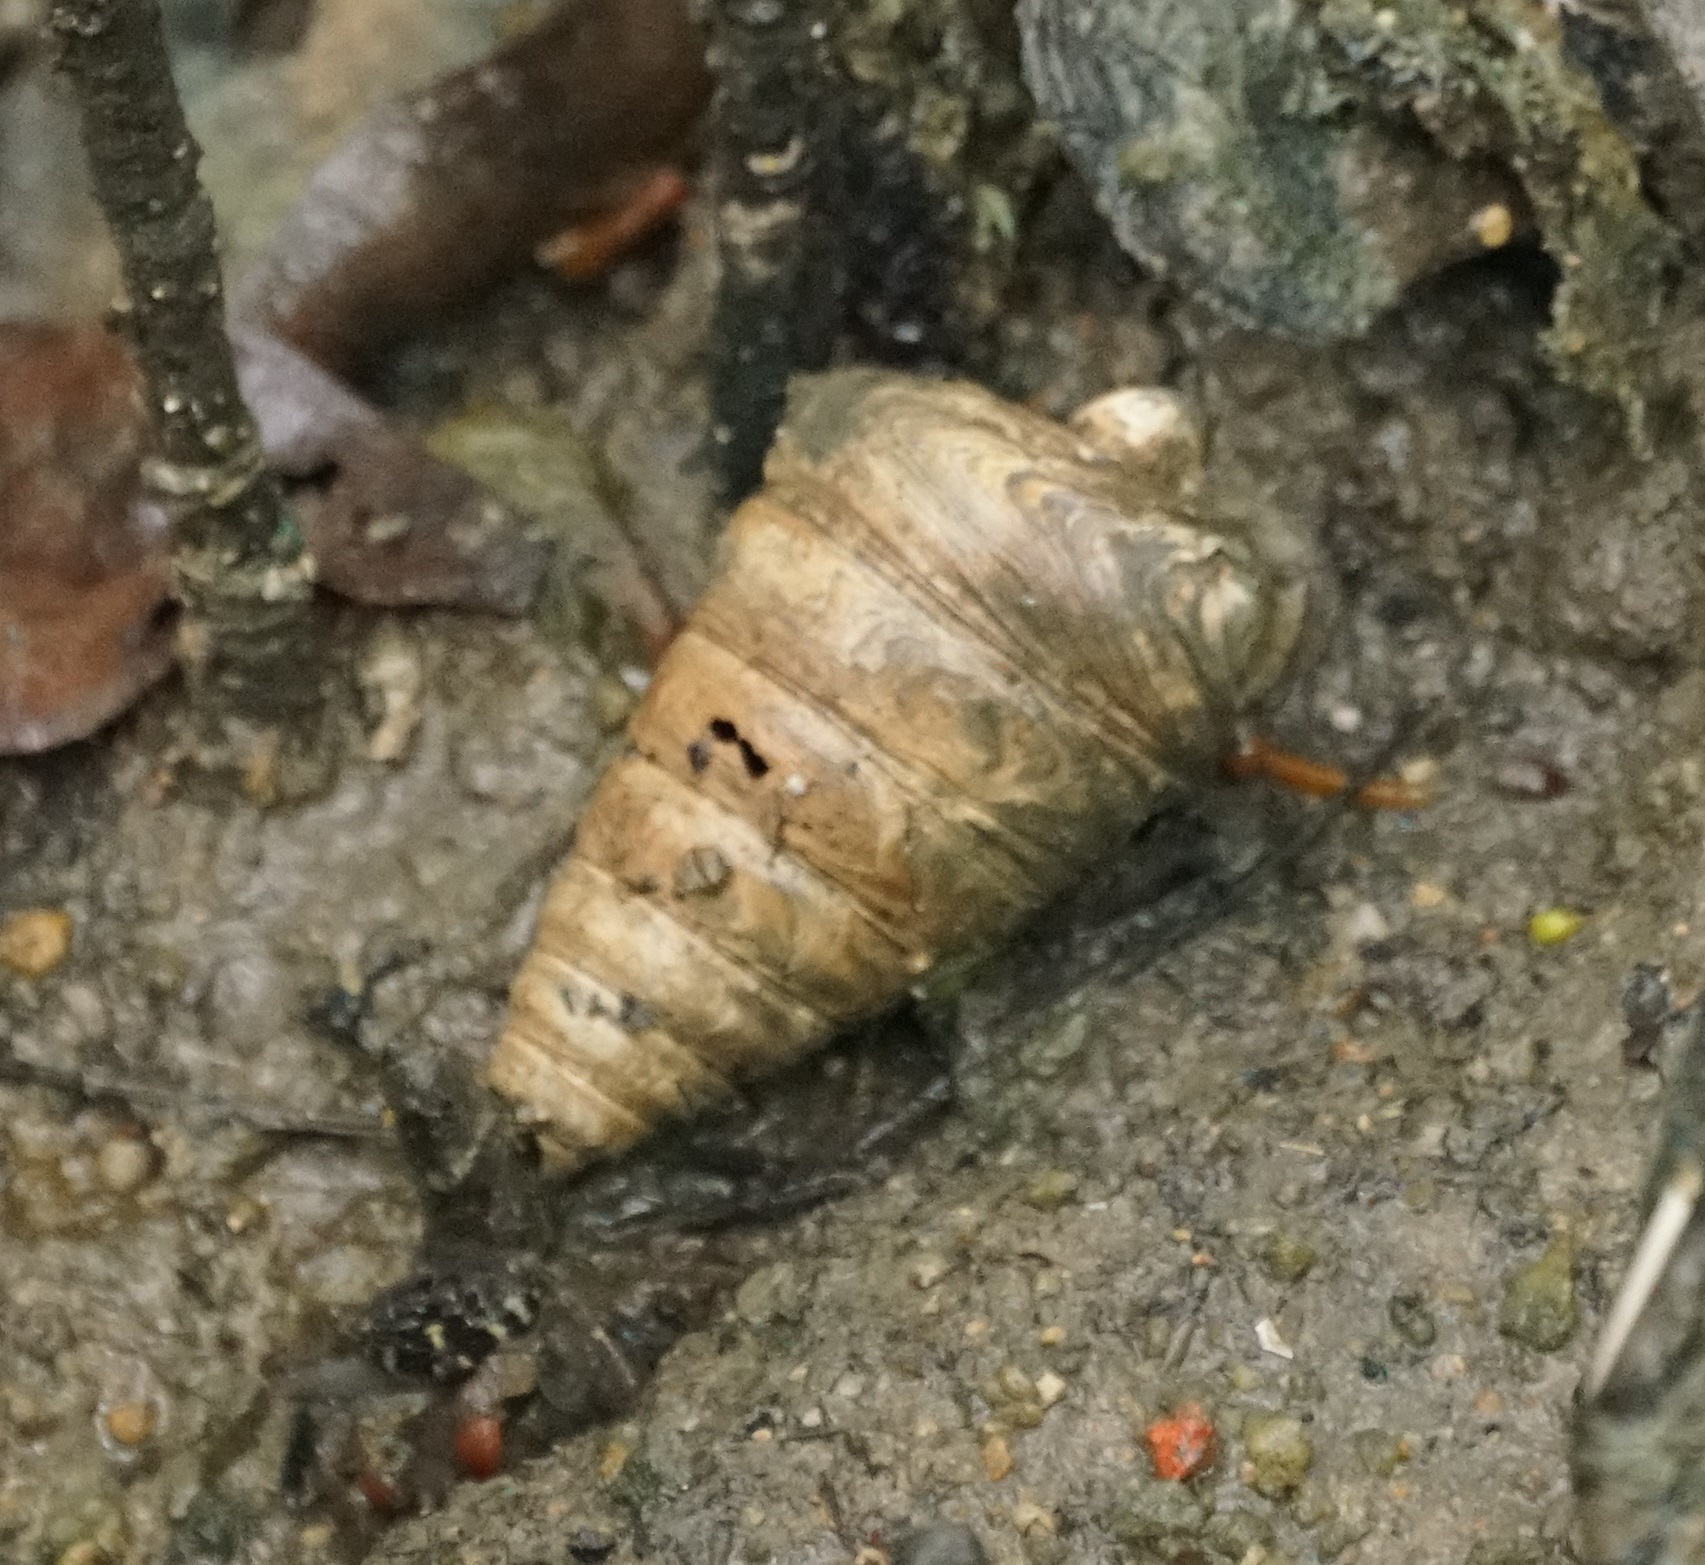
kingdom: Animalia
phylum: Mollusca
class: Gastropoda
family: Potamididae
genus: Telescopium
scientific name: Telescopium telescopium
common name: Telescope creeper
